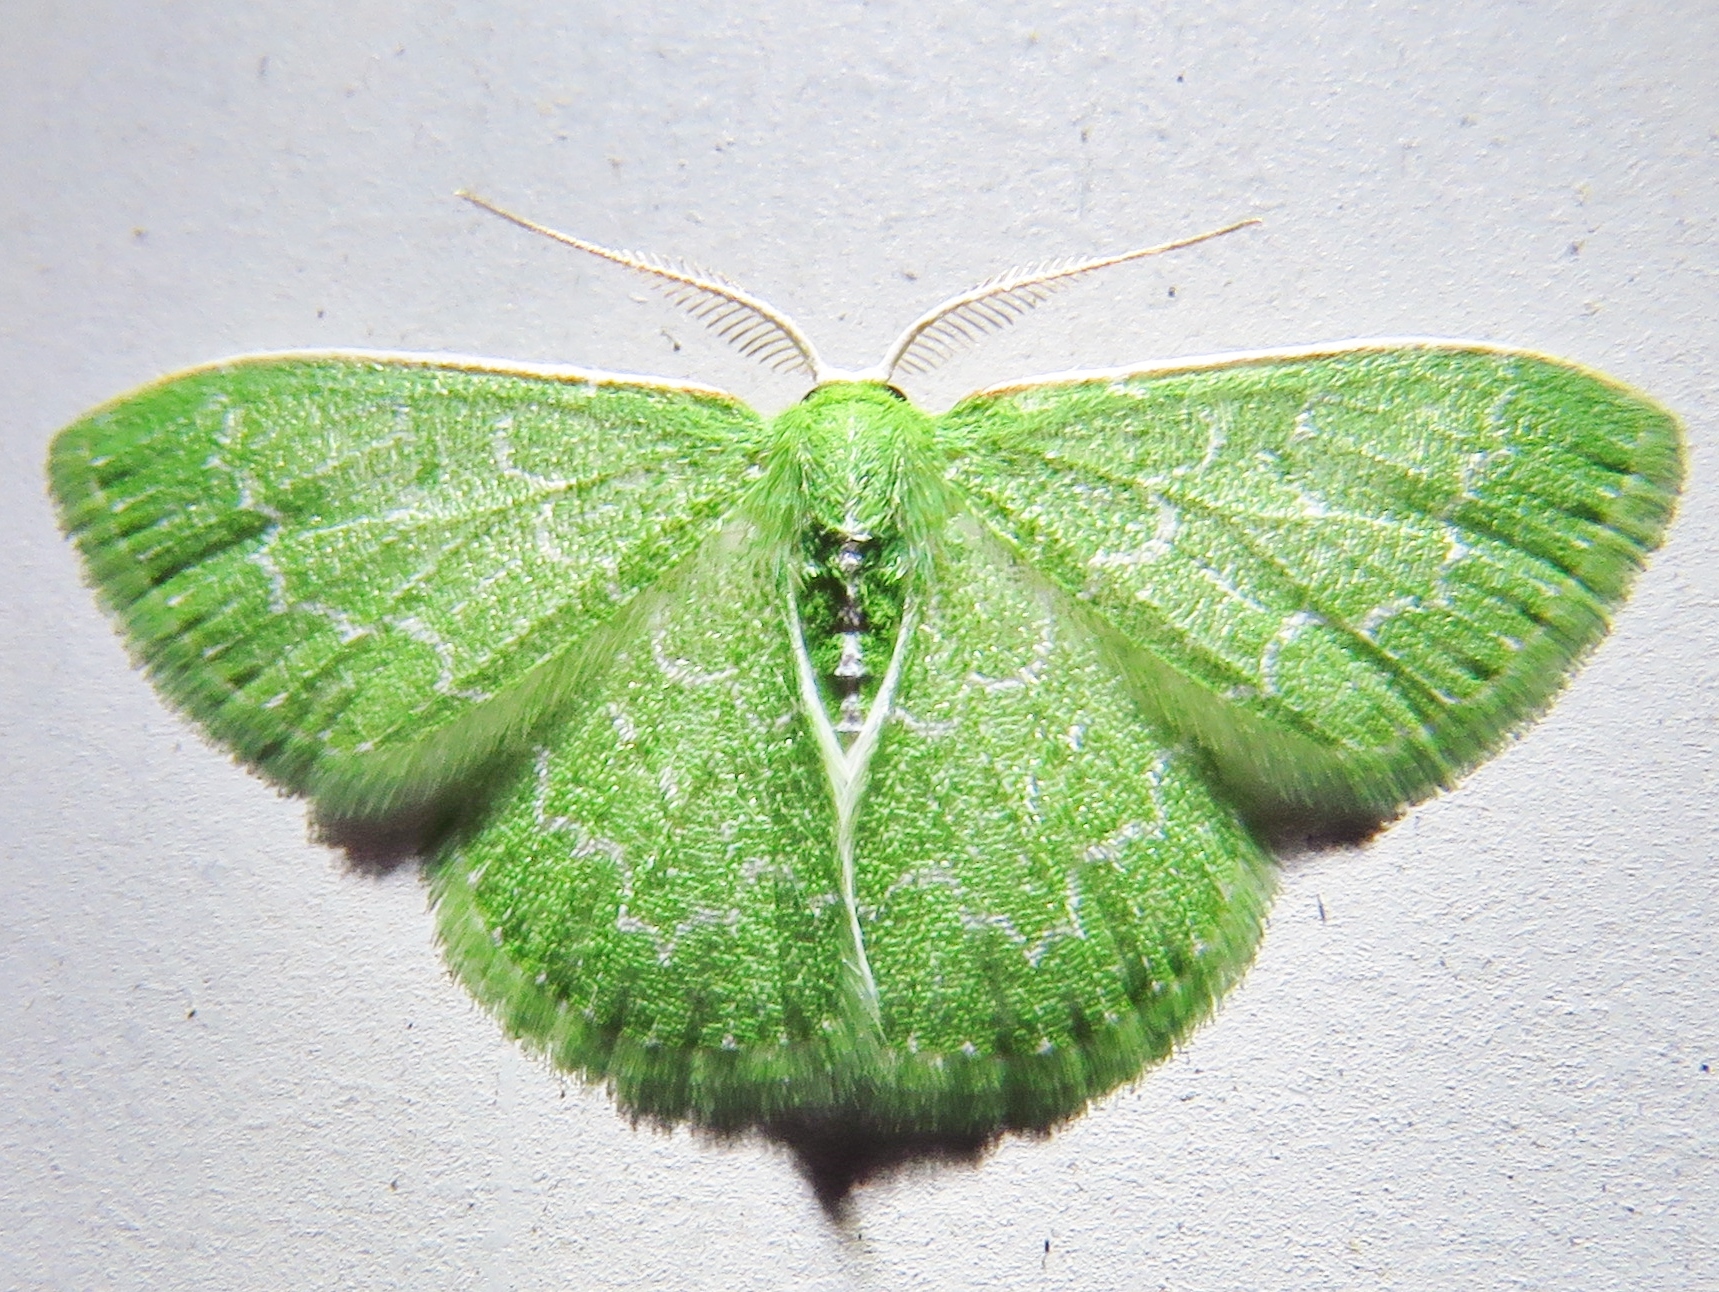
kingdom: Animalia
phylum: Arthropoda
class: Insecta
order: Lepidoptera
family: Geometridae
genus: Synchlora
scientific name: Synchlora frondaria
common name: Southern emerald
